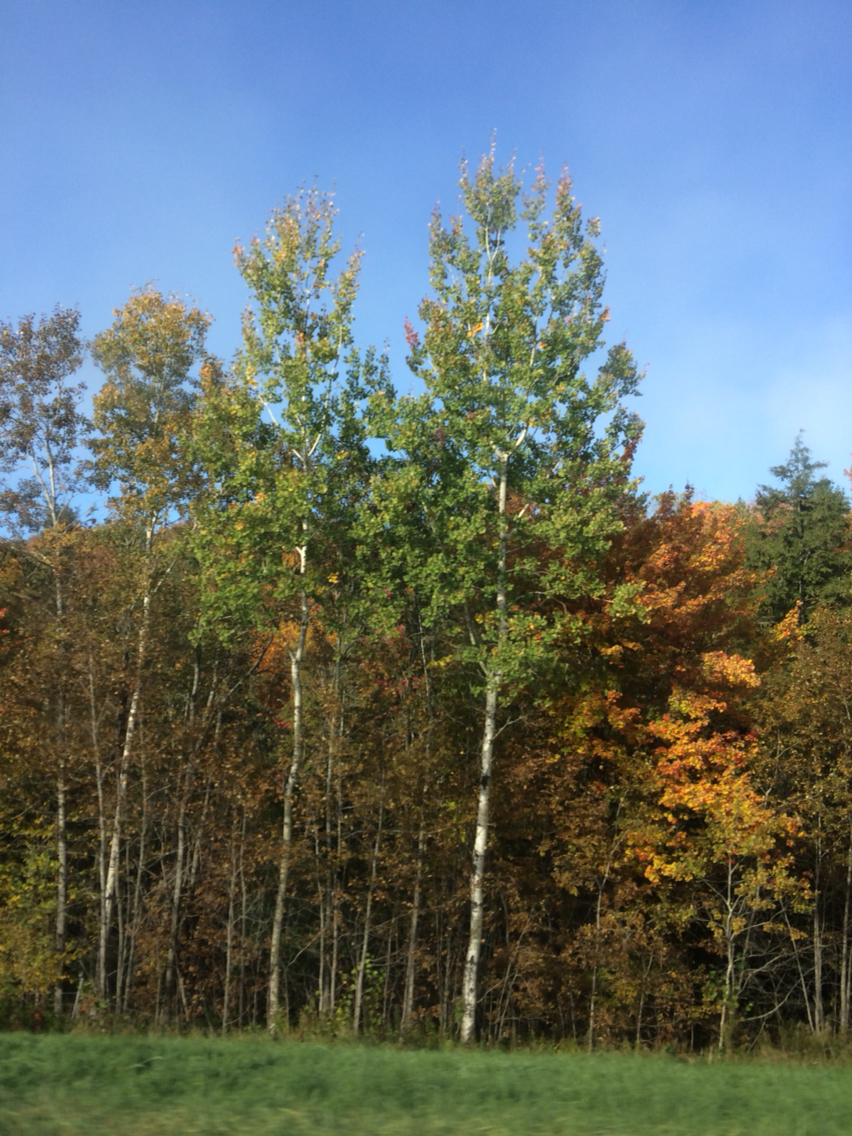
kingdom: Plantae
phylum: Tracheophyta
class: Magnoliopsida
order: Malpighiales
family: Salicaceae
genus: Populus
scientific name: Populus tremuloides
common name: Quaking aspen
